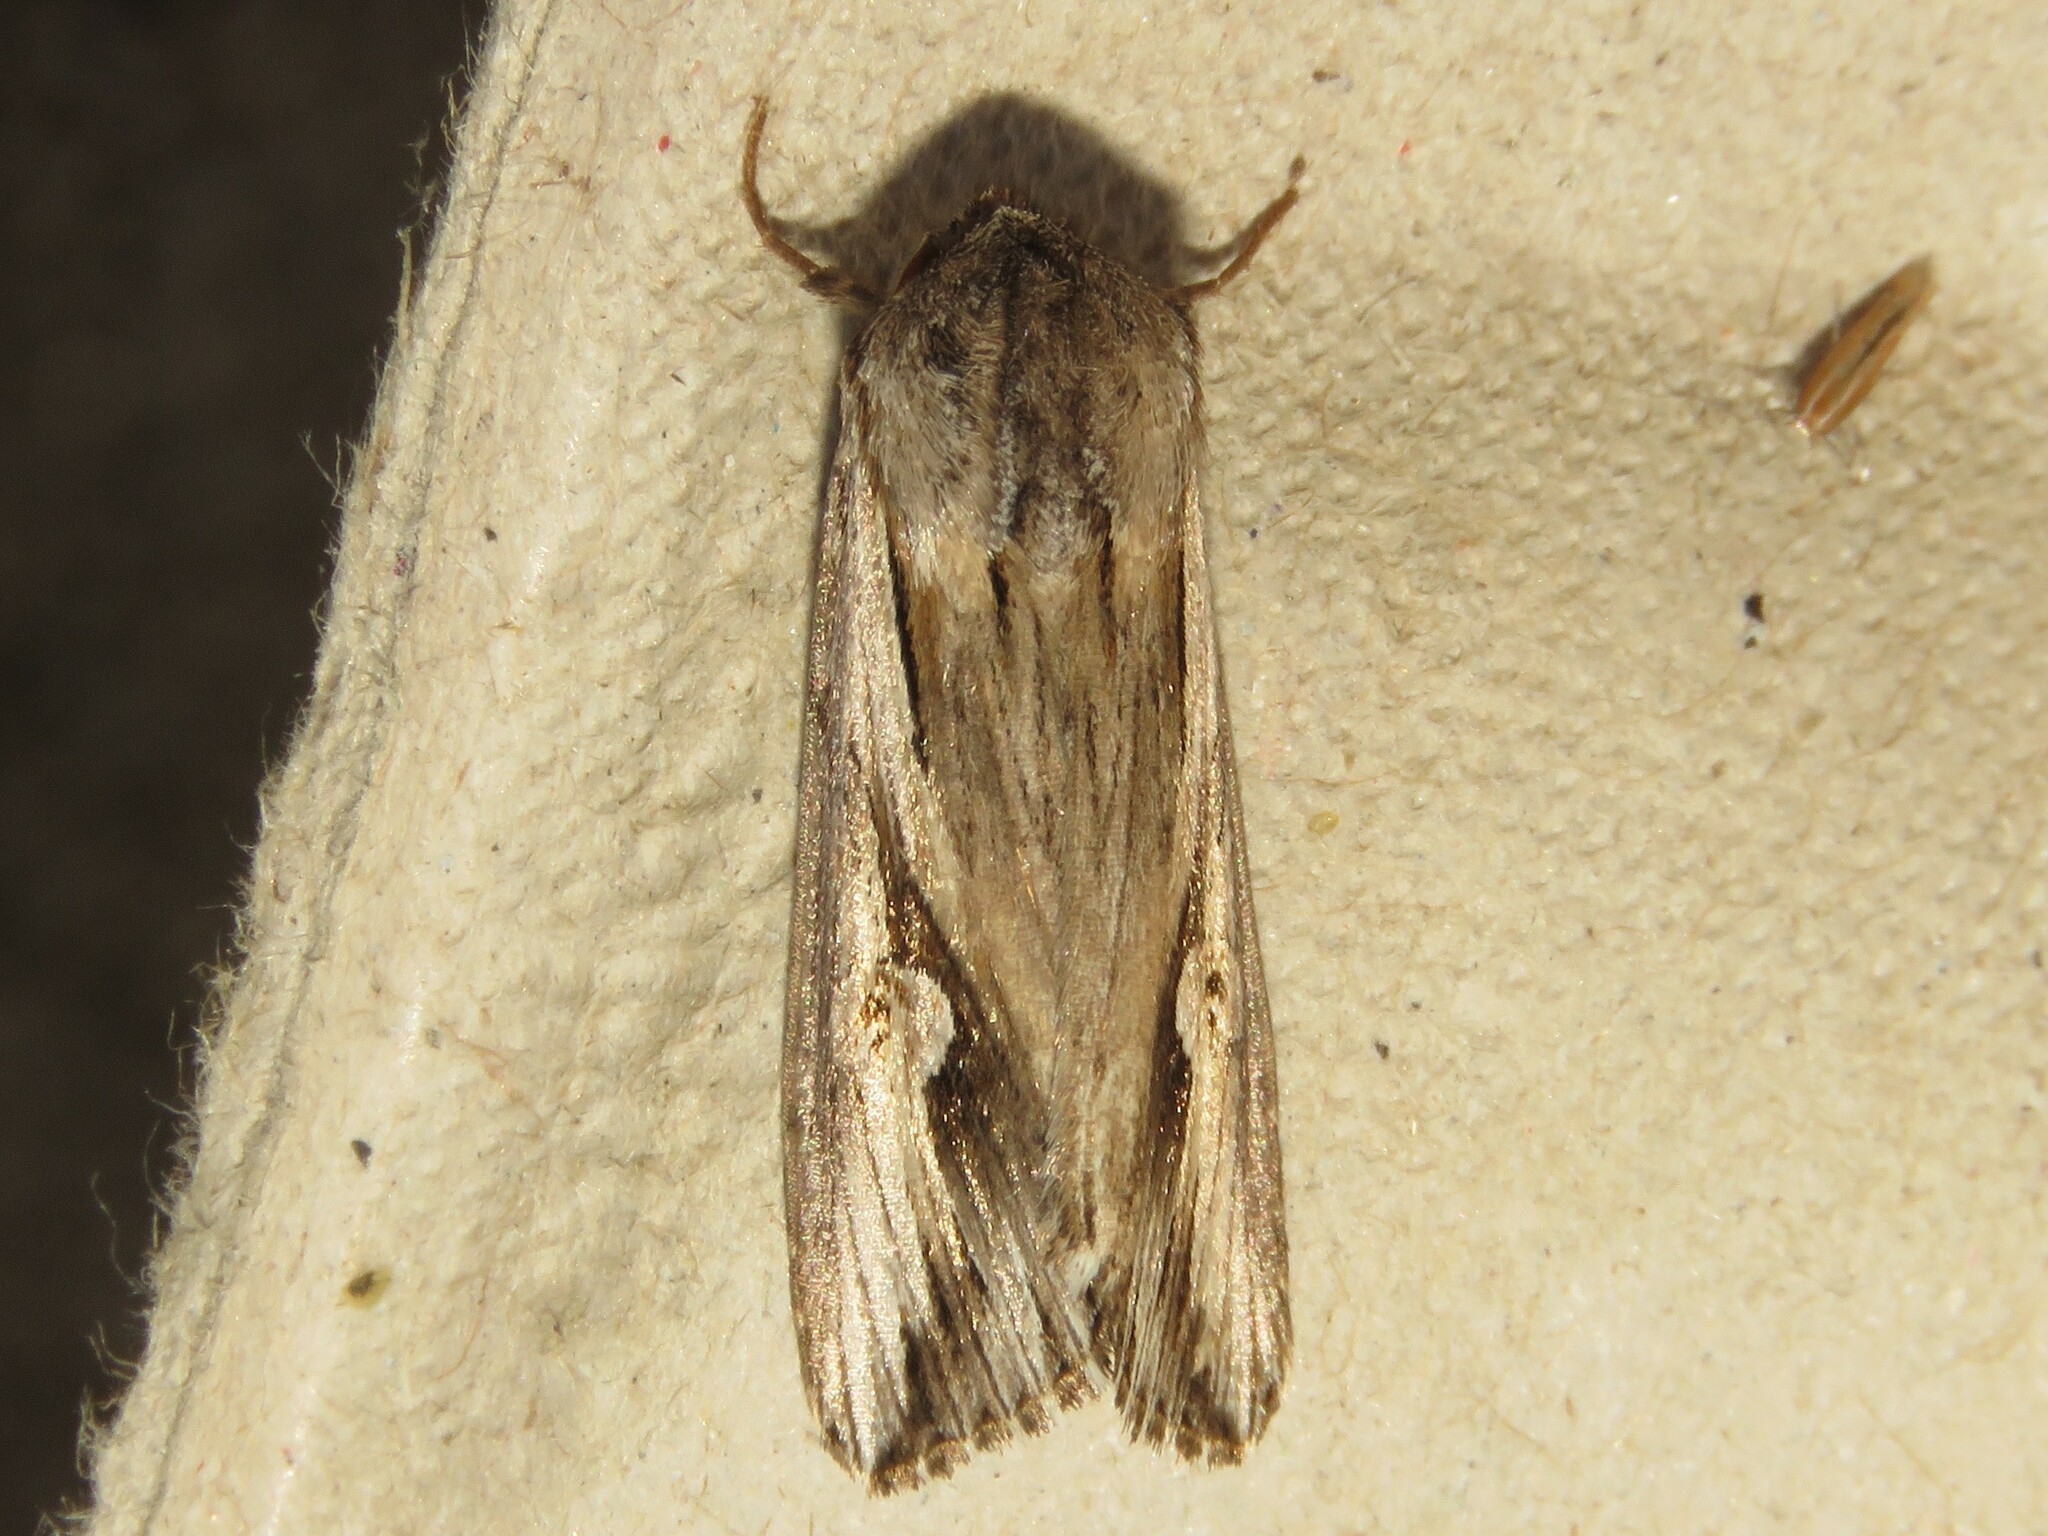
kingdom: Animalia
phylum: Arthropoda
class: Insecta
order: Lepidoptera
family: Noctuidae
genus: Nedra
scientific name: Nedra ramosula
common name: Gray half-spot
